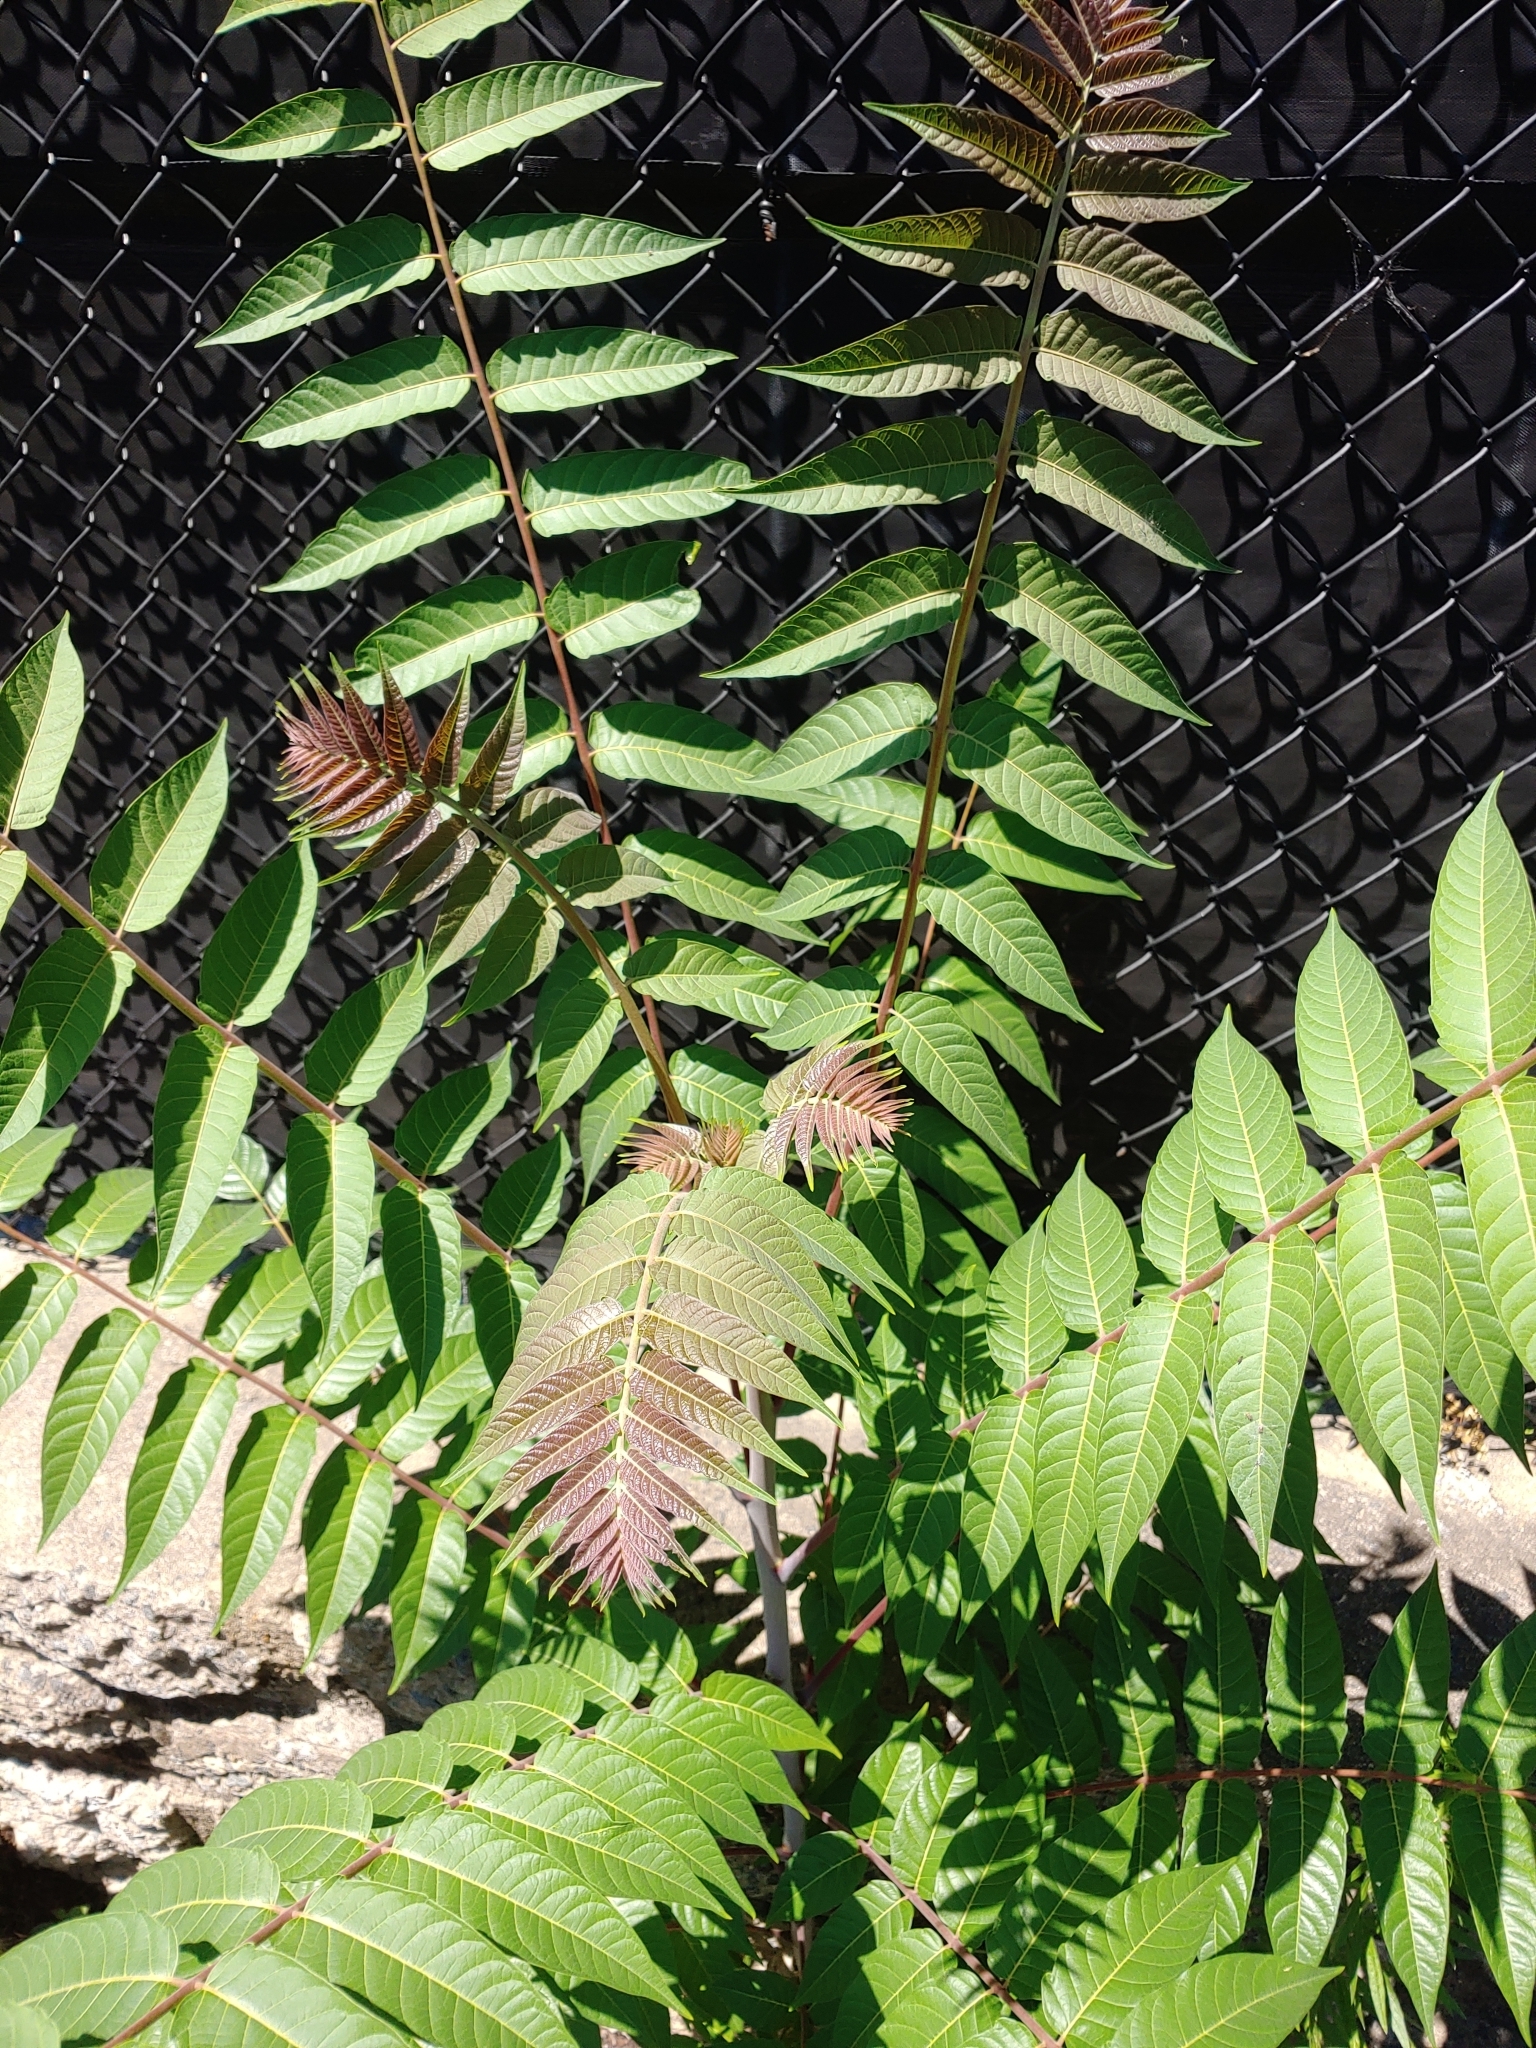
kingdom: Plantae
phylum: Tracheophyta
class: Magnoliopsida
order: Sapindales
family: Simaroubaceae
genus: Ailanthus
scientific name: Ailanthus altissima
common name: Tree-of-heaven
